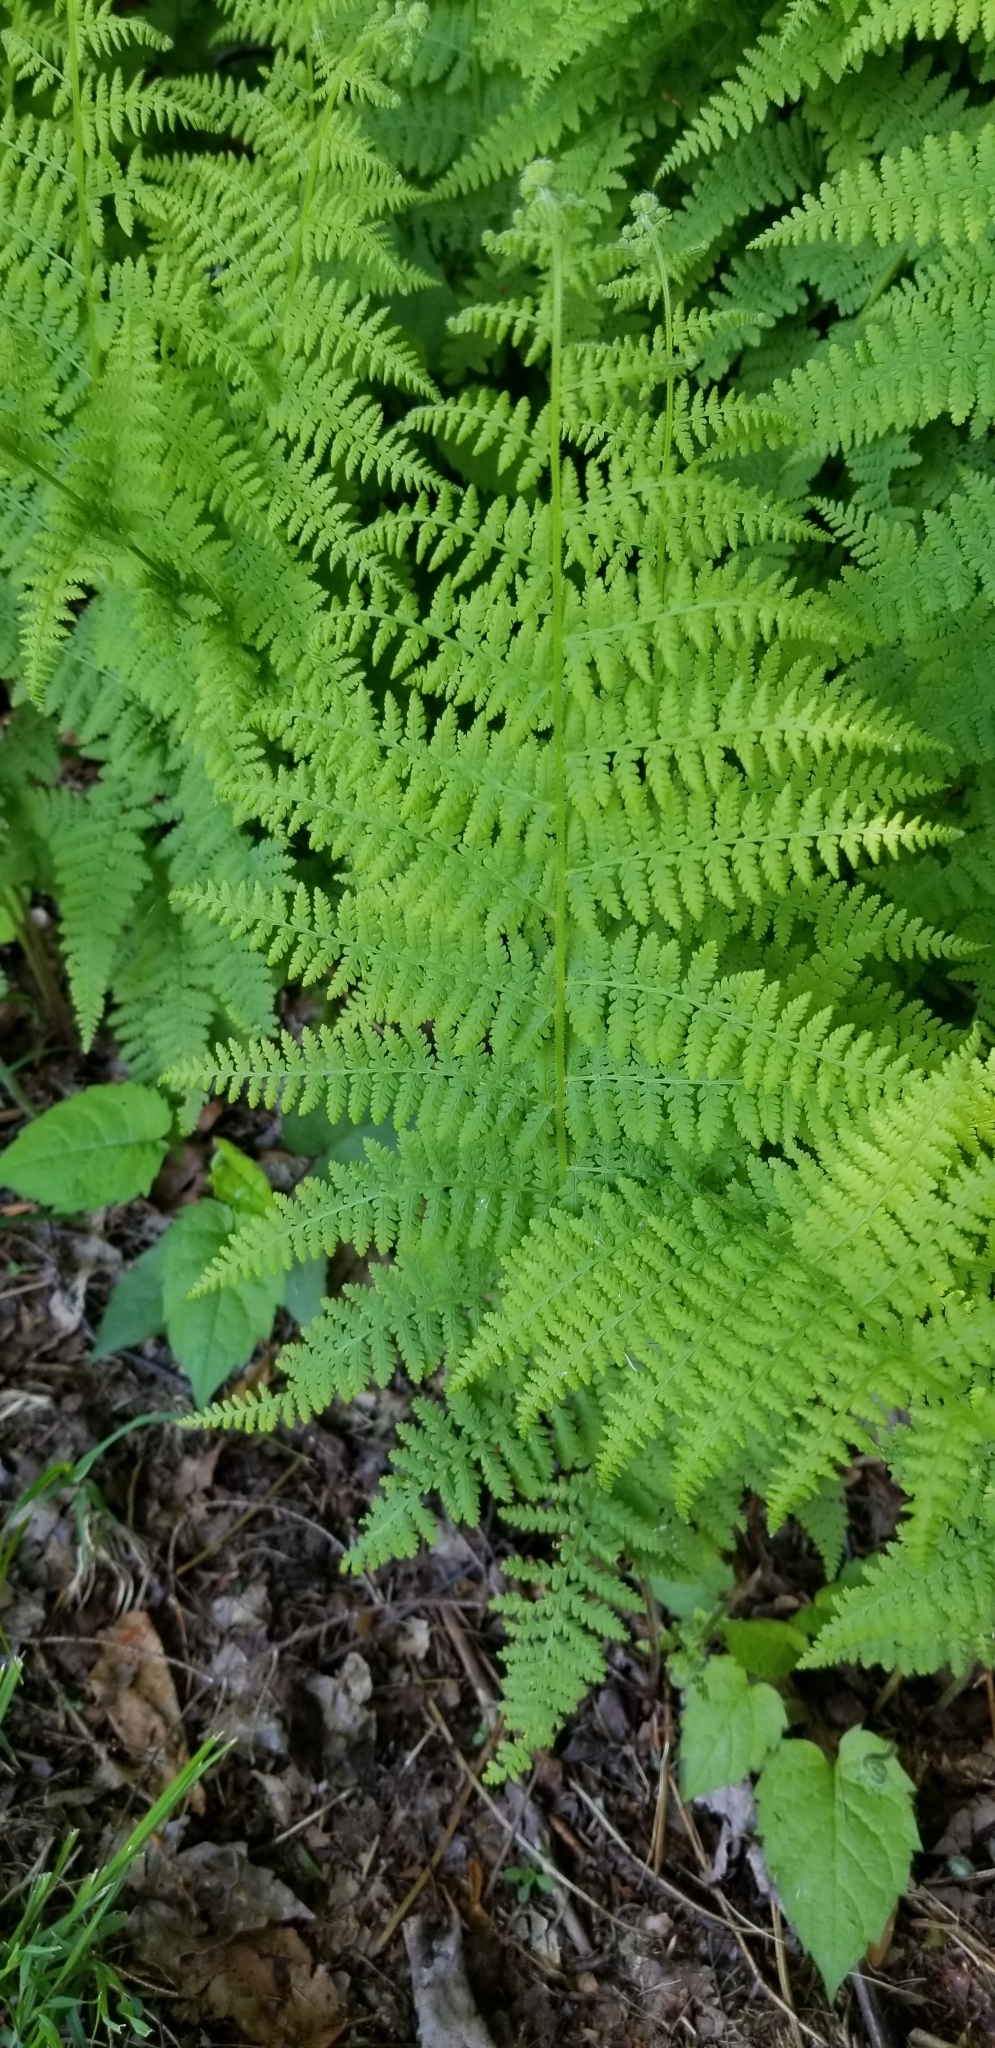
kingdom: Plantae
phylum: Tracheophyta
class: Polypodiopsida
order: Polypodiales
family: Dennstaedtiaceae
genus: Sitobolium
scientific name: Sitobolium punctilobum
